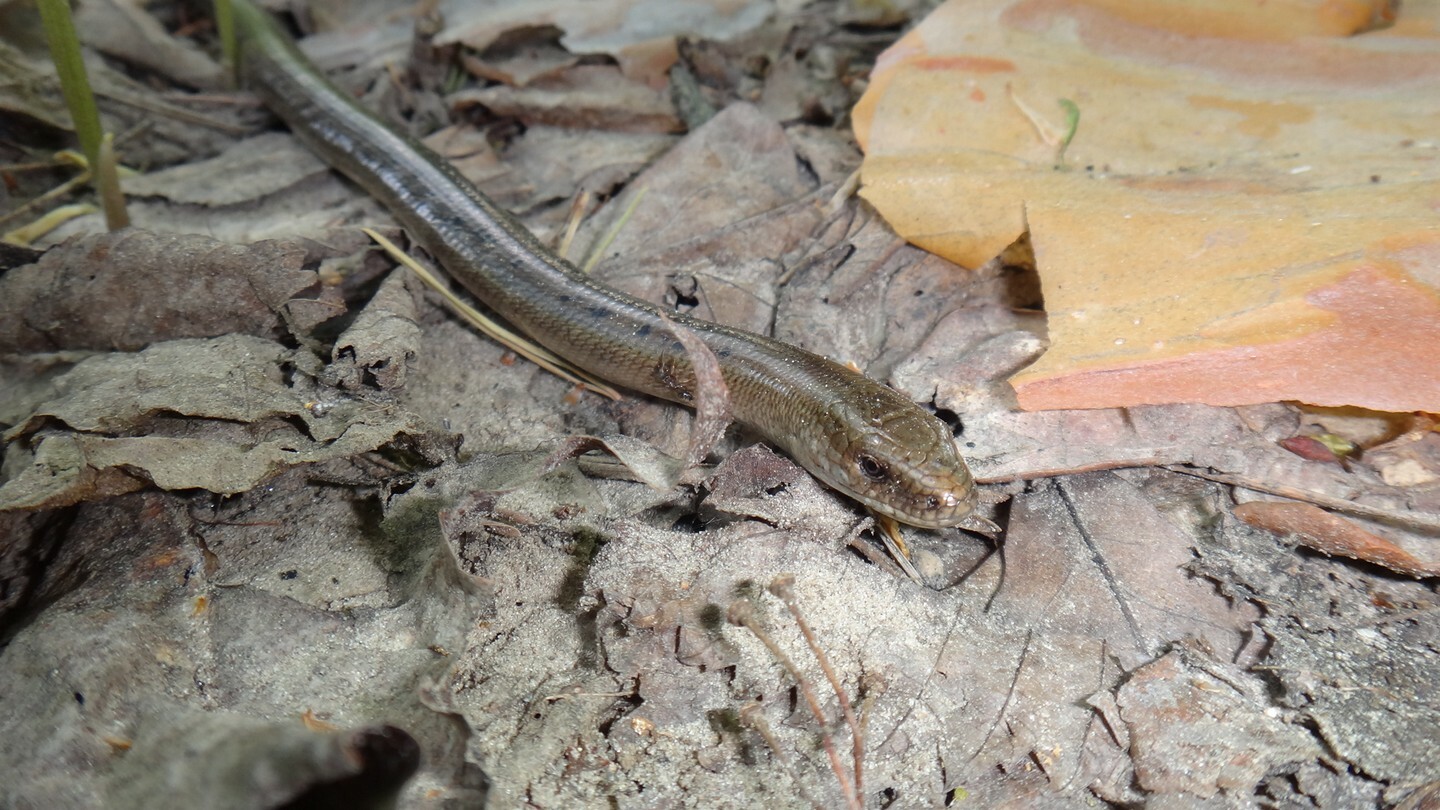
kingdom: Animalia
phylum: Chordata
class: Squamata
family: Anguidae
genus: Anguis
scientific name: Anguis colchica
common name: Slow worm
